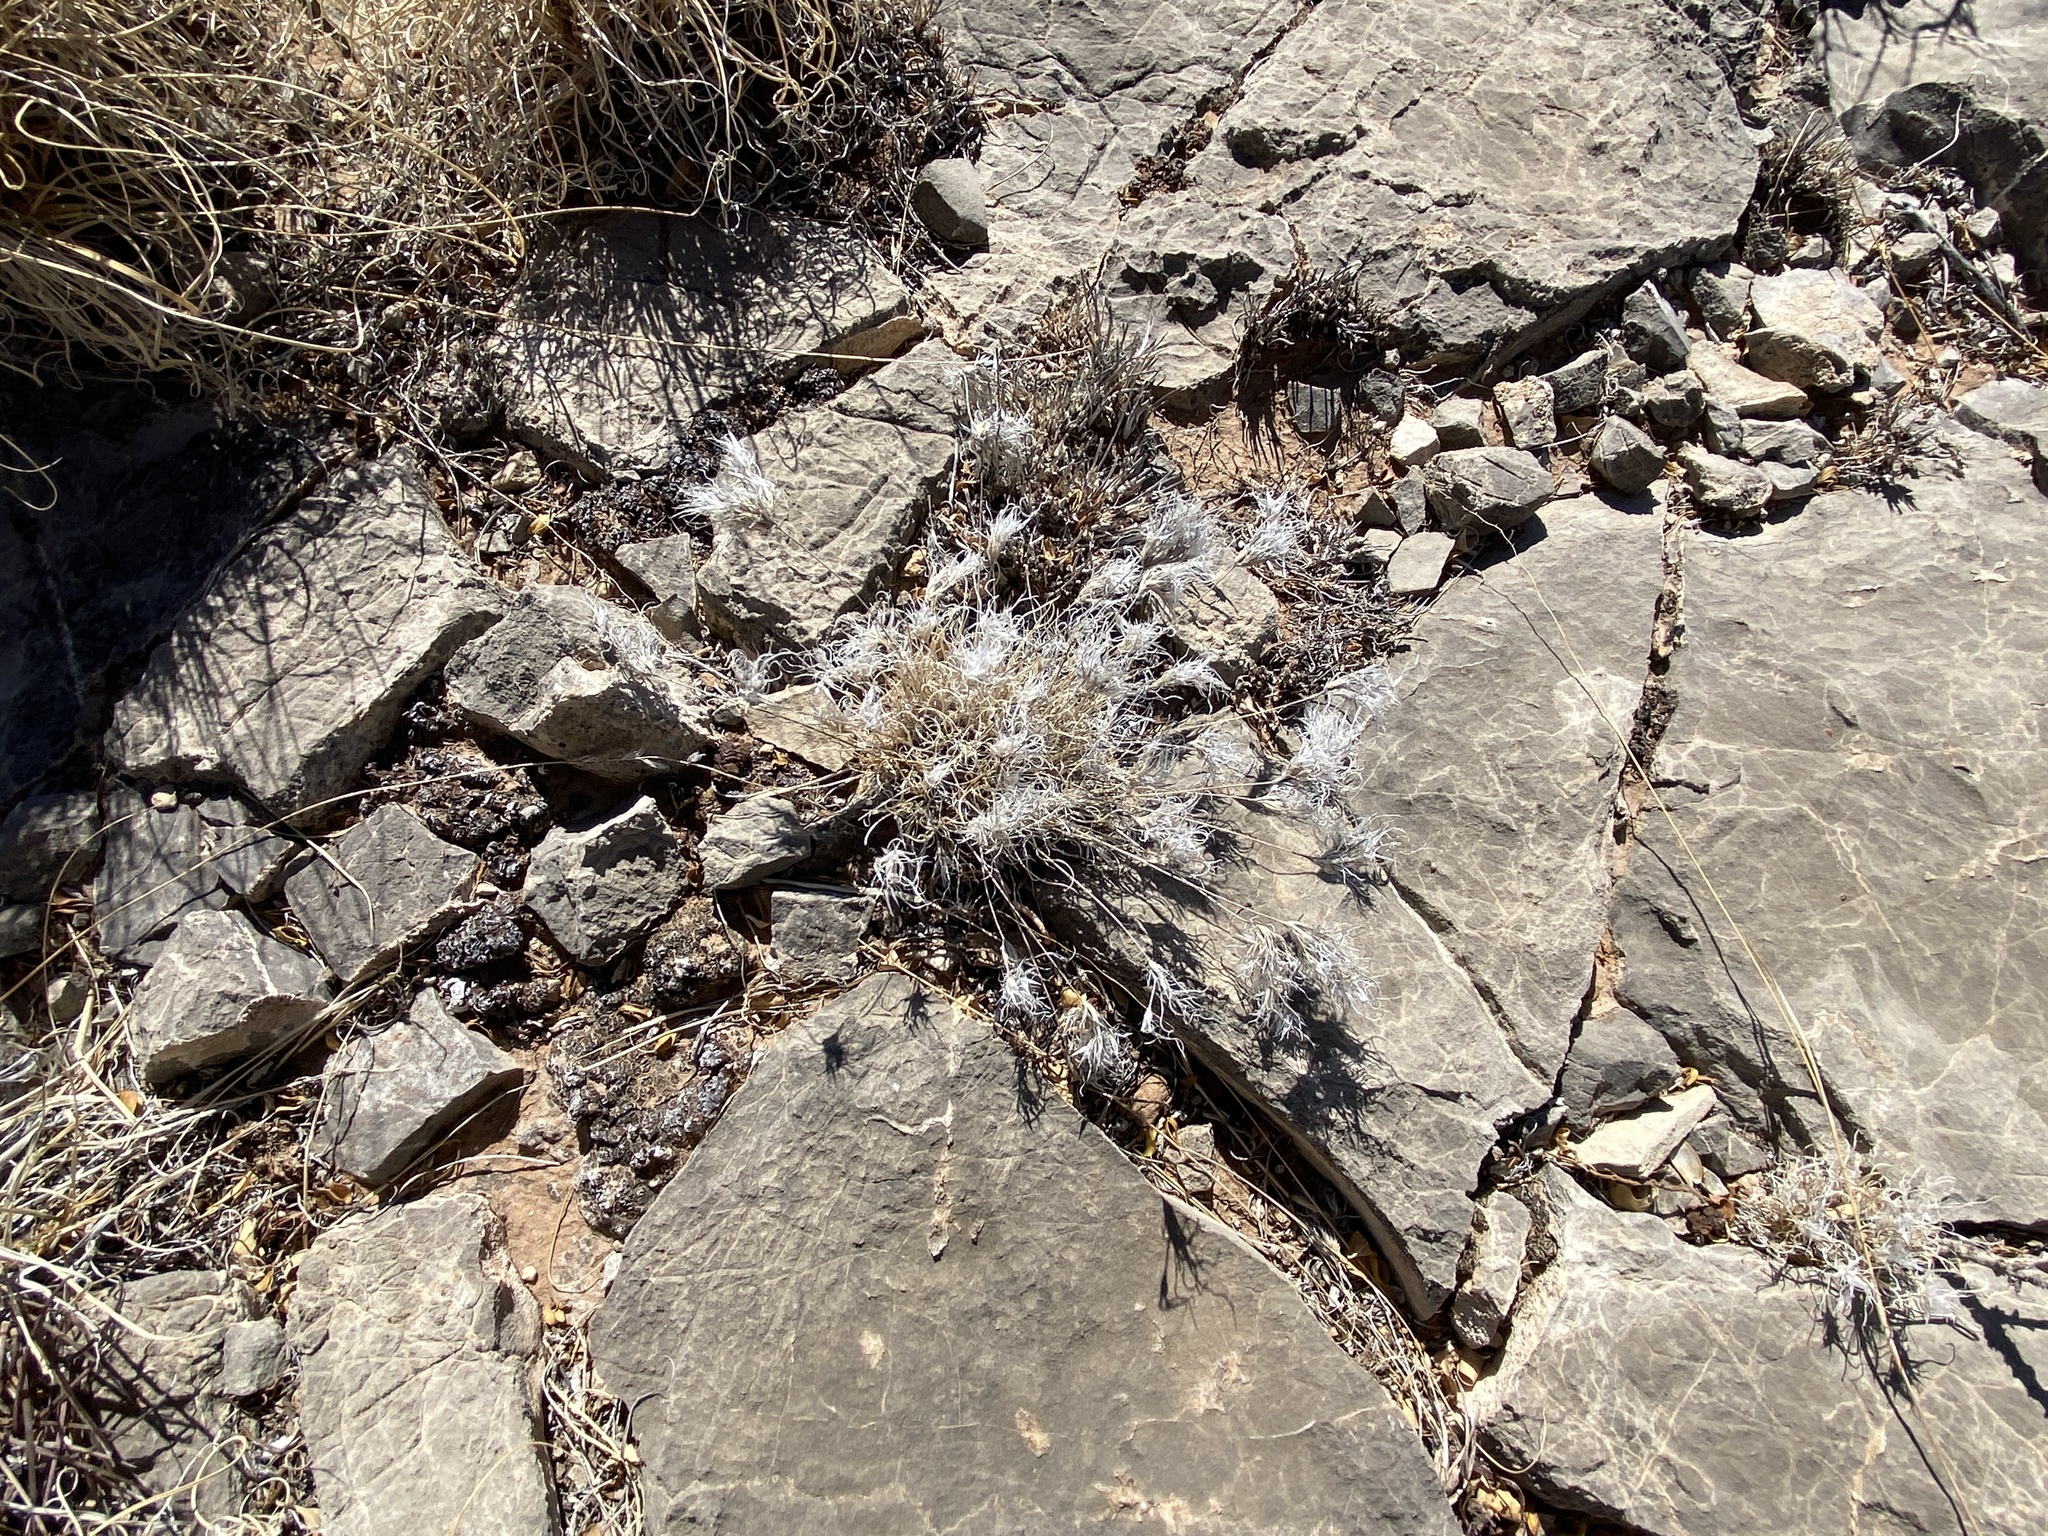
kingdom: Plantae
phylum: Tracheophyta
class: Liliopsida
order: Poales
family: Poaceae
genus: Dasyochloa
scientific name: Dasyochloa pulchella
